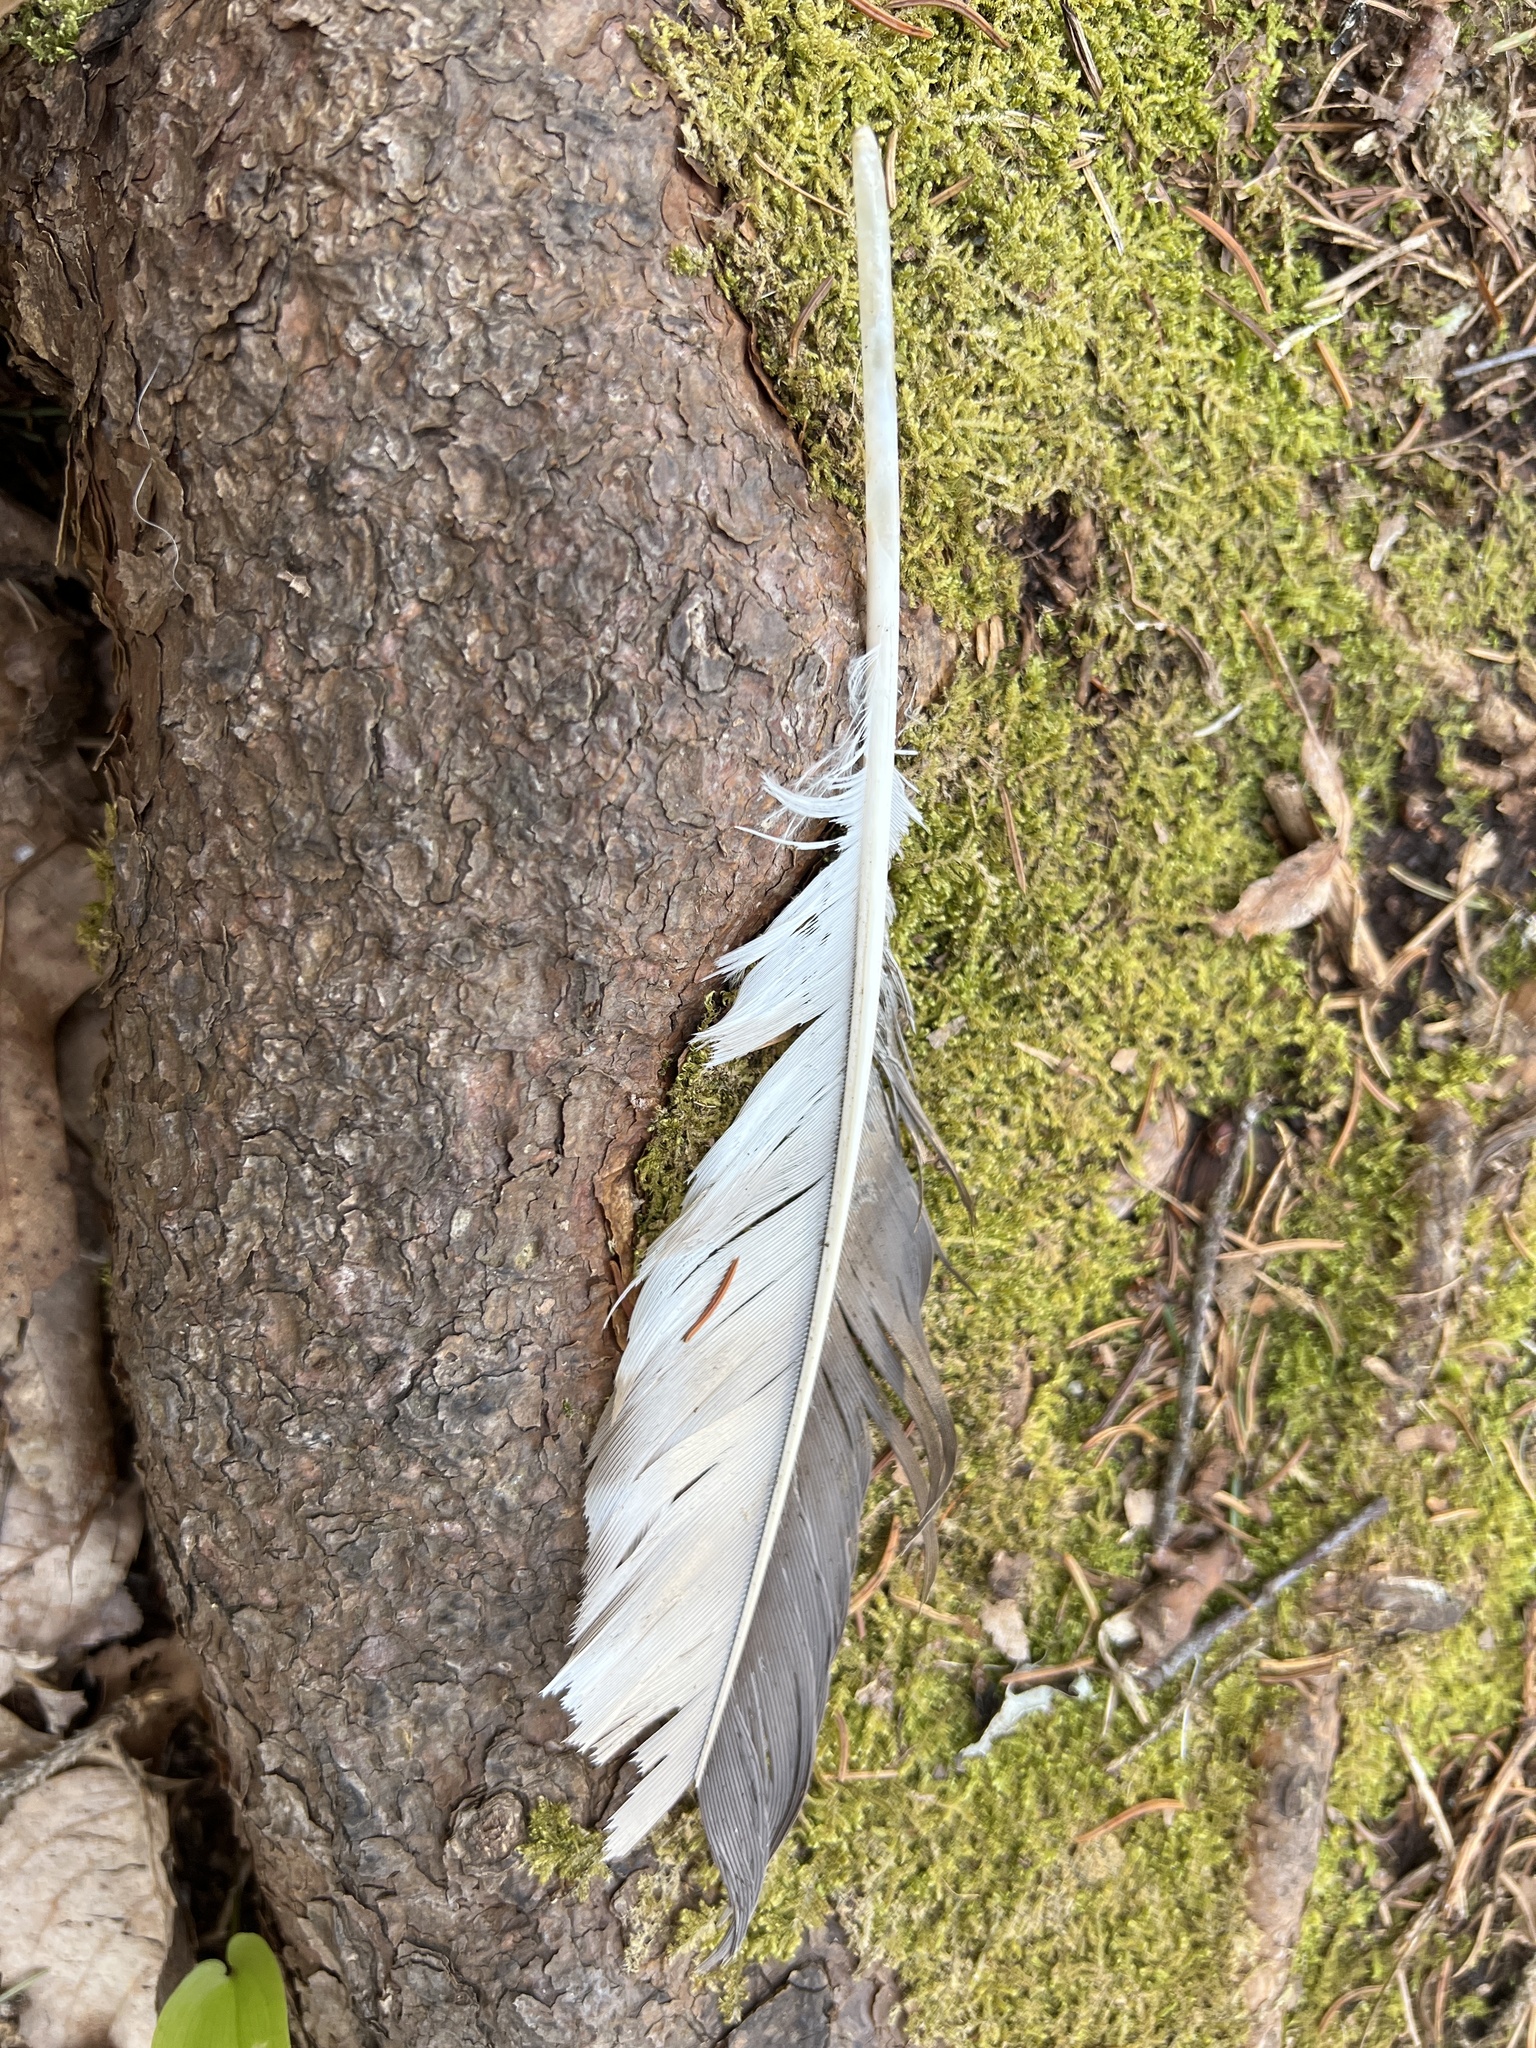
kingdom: Animalia
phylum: Chordata
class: Aves
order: Accipitriformes
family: Pandionidae
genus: Pandion
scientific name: Pandion haliaetus
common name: Osprey
